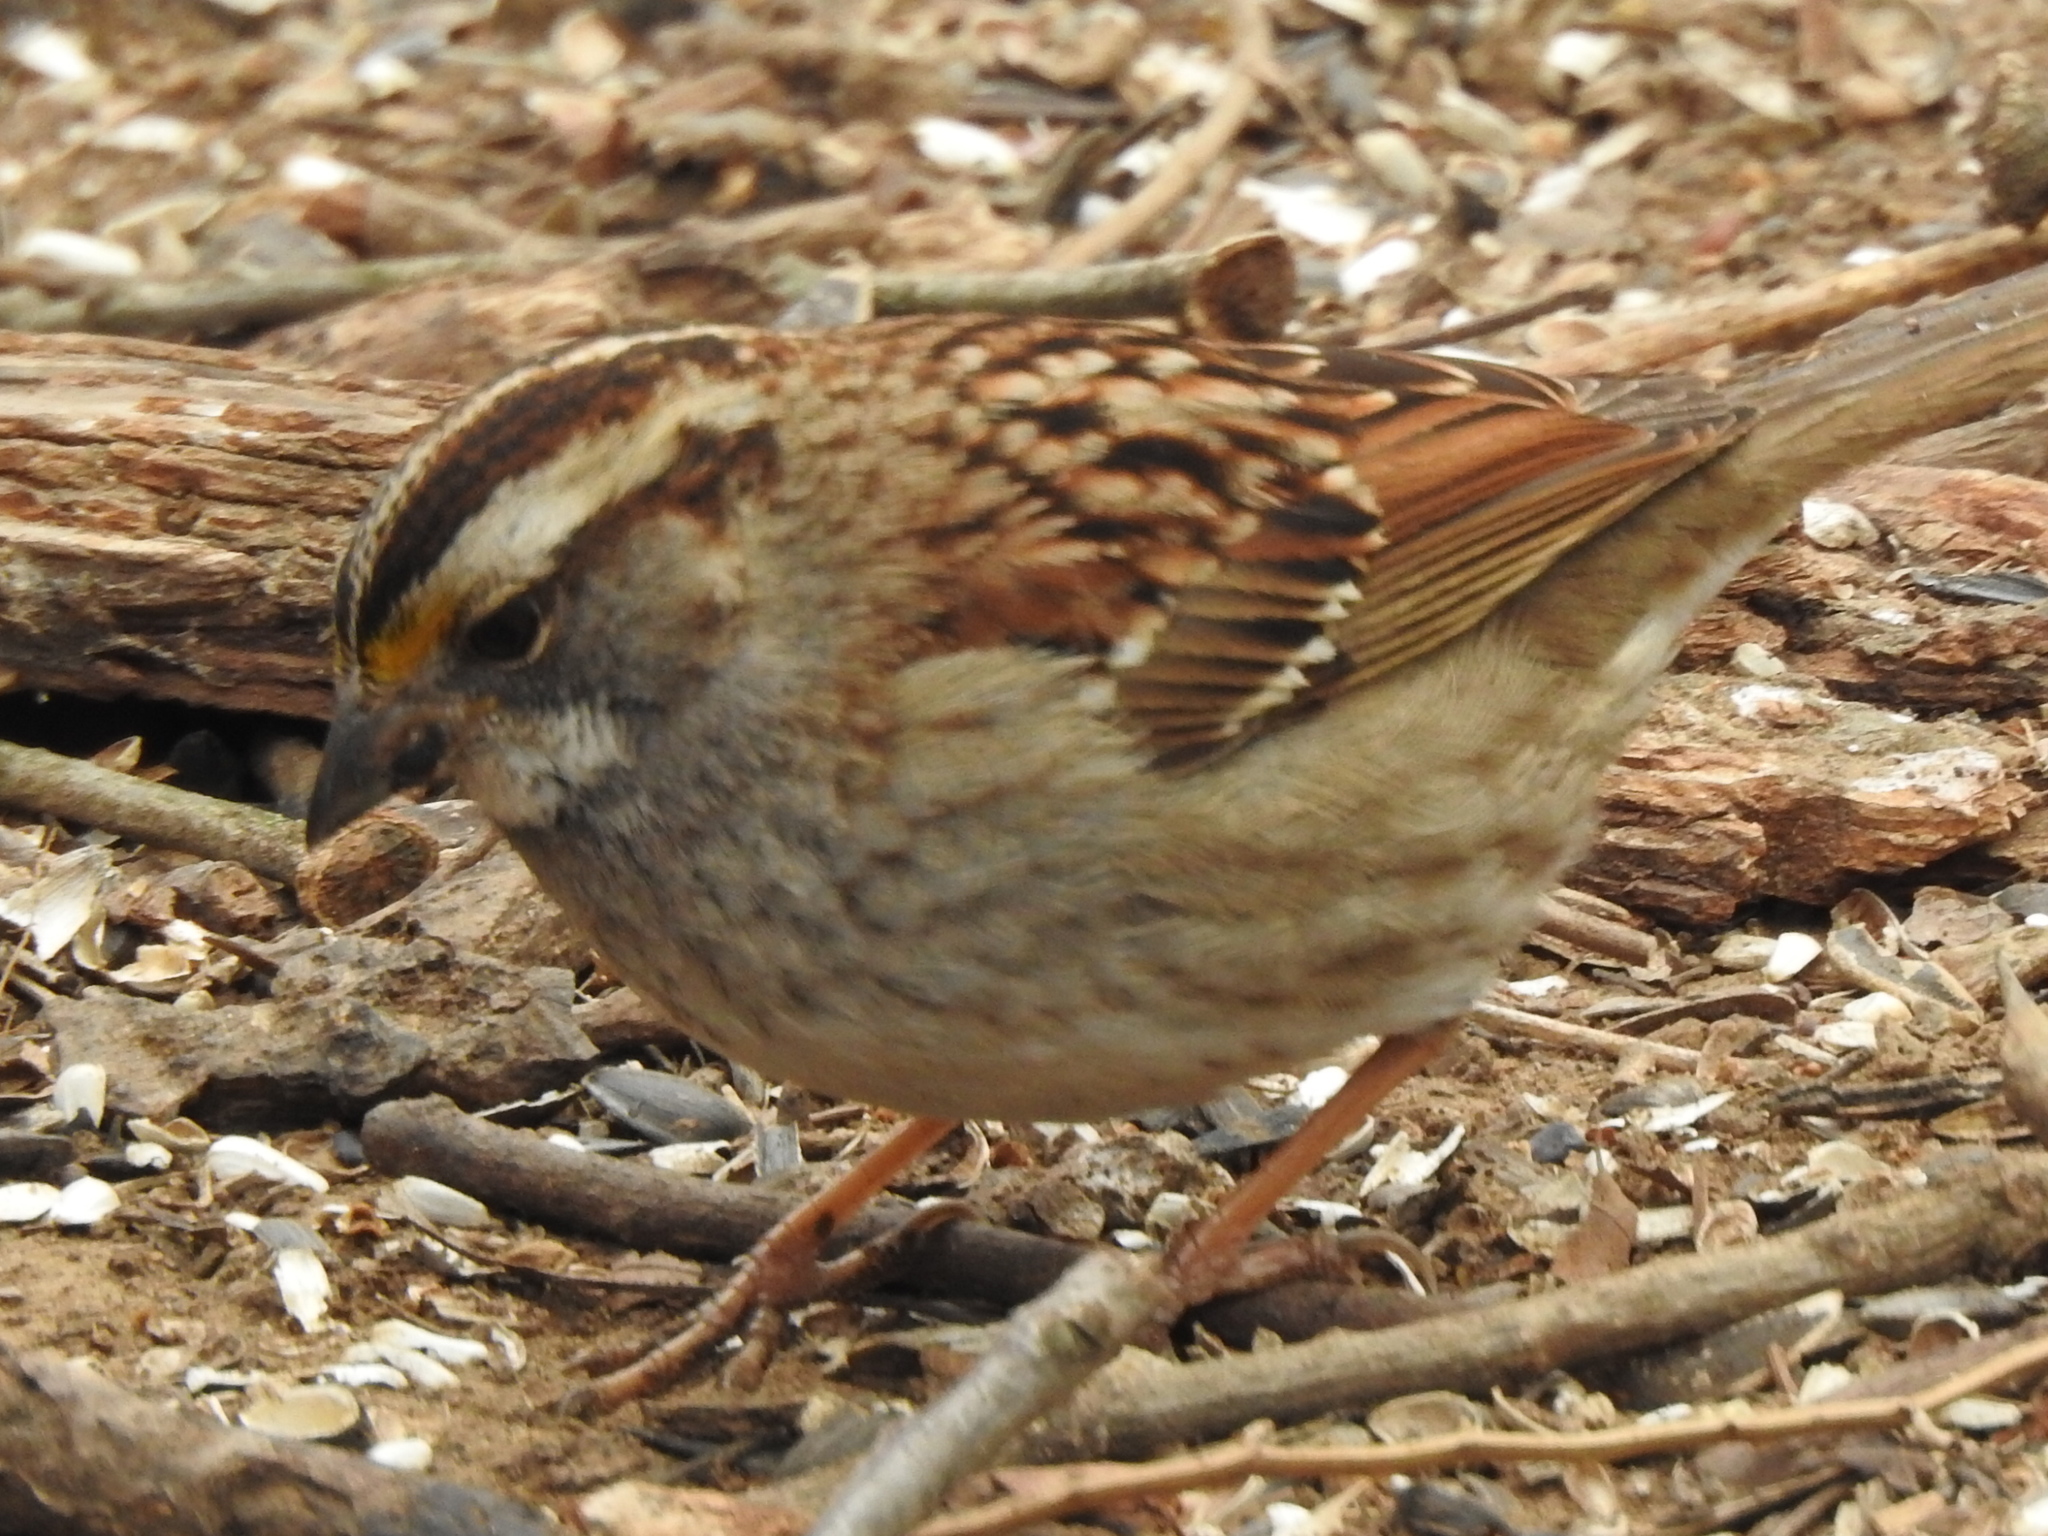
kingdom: Animalia
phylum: Chordata
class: Aves
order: Passeriformes
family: Passerellidae
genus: Zonotrichia
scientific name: Zonotrichia albicollis
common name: White-throated sparrow
